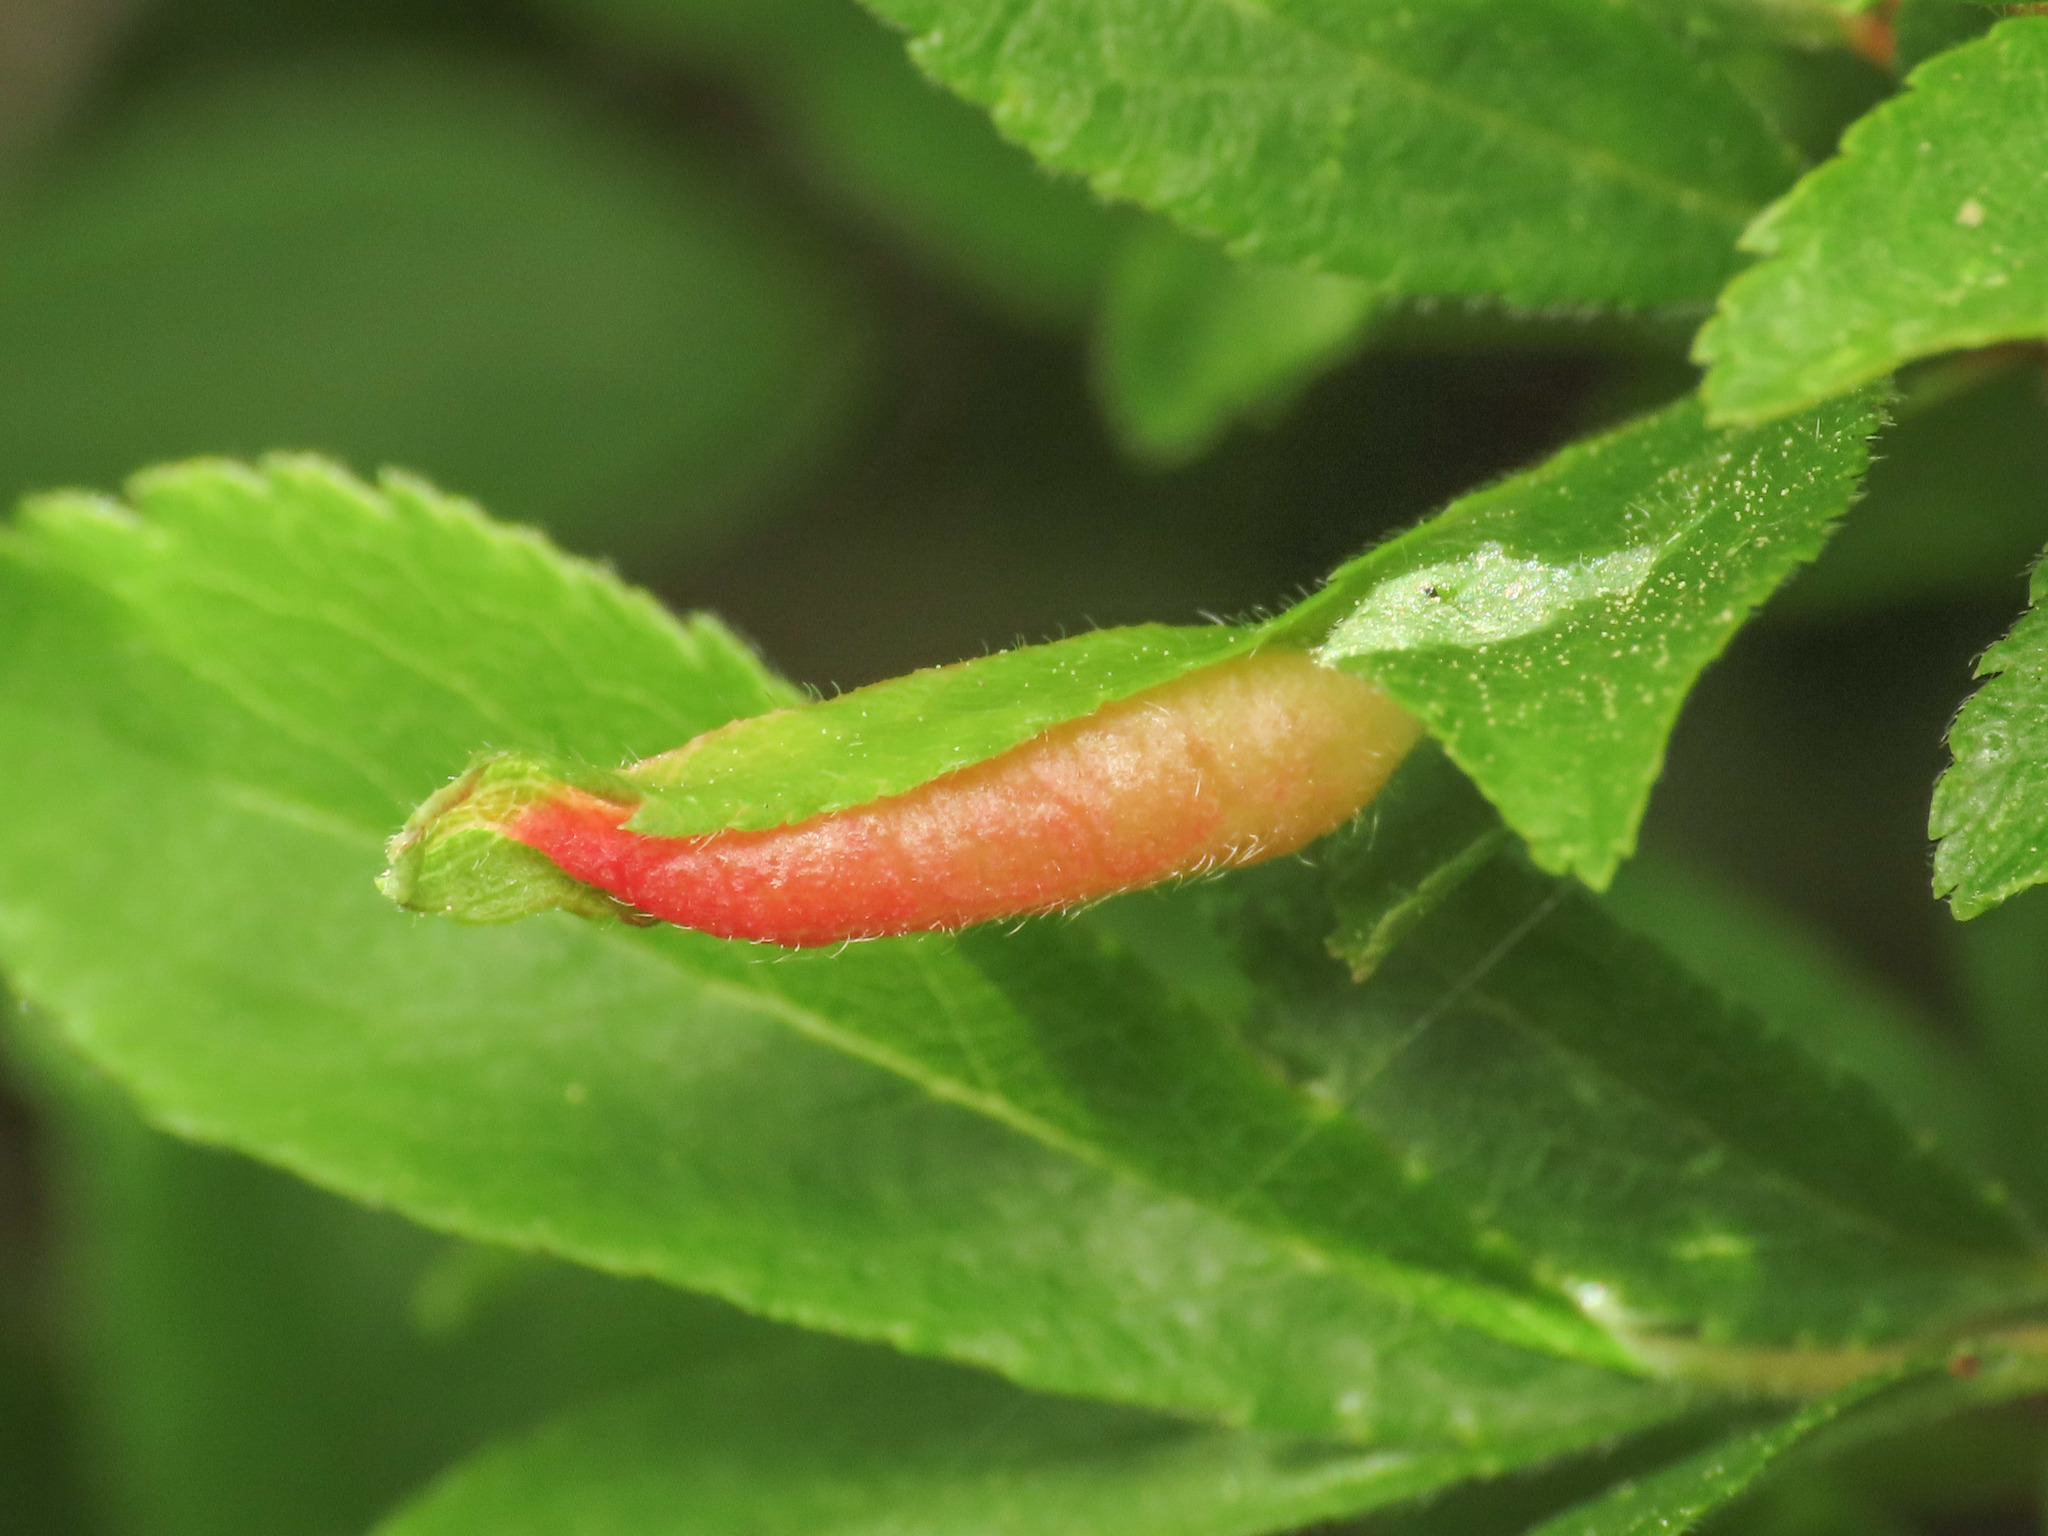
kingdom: Animalia
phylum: Arthropoda
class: Insecta
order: Diptera
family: Cecidomyiidae
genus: Putoniella
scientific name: Putoniella pruni
